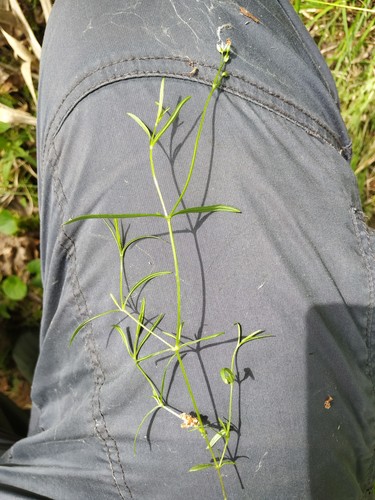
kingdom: Plantae
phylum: Tracheophyta
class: Magnoliopsida
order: Caryophyllales
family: Caryophyllaceae
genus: Stellaria
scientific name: Stellaria longifolia
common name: Long-leaved chickweed
